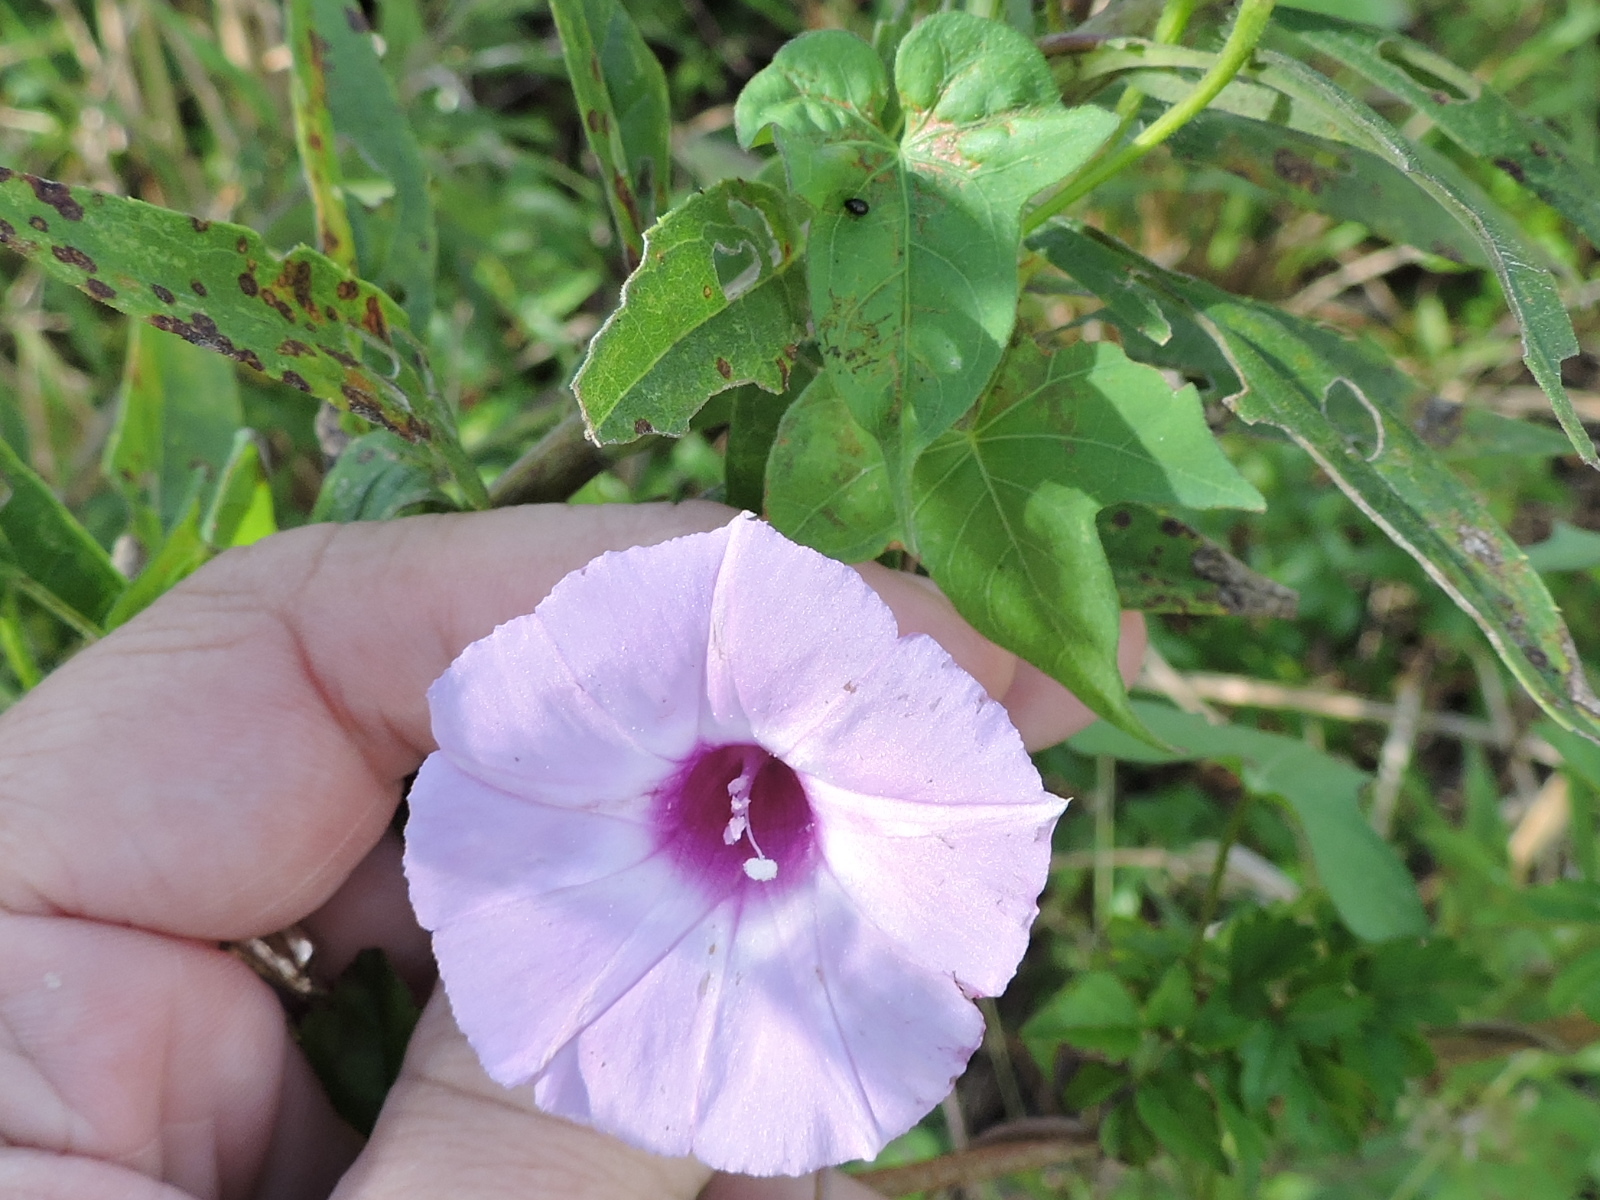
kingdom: Plantae
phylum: Tracheophyta
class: Magnoliopsida
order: Solanales
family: Convolvulaceae
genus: Ipomoea
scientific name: Ipomoea cordatotriloba
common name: Cotton morning glory
